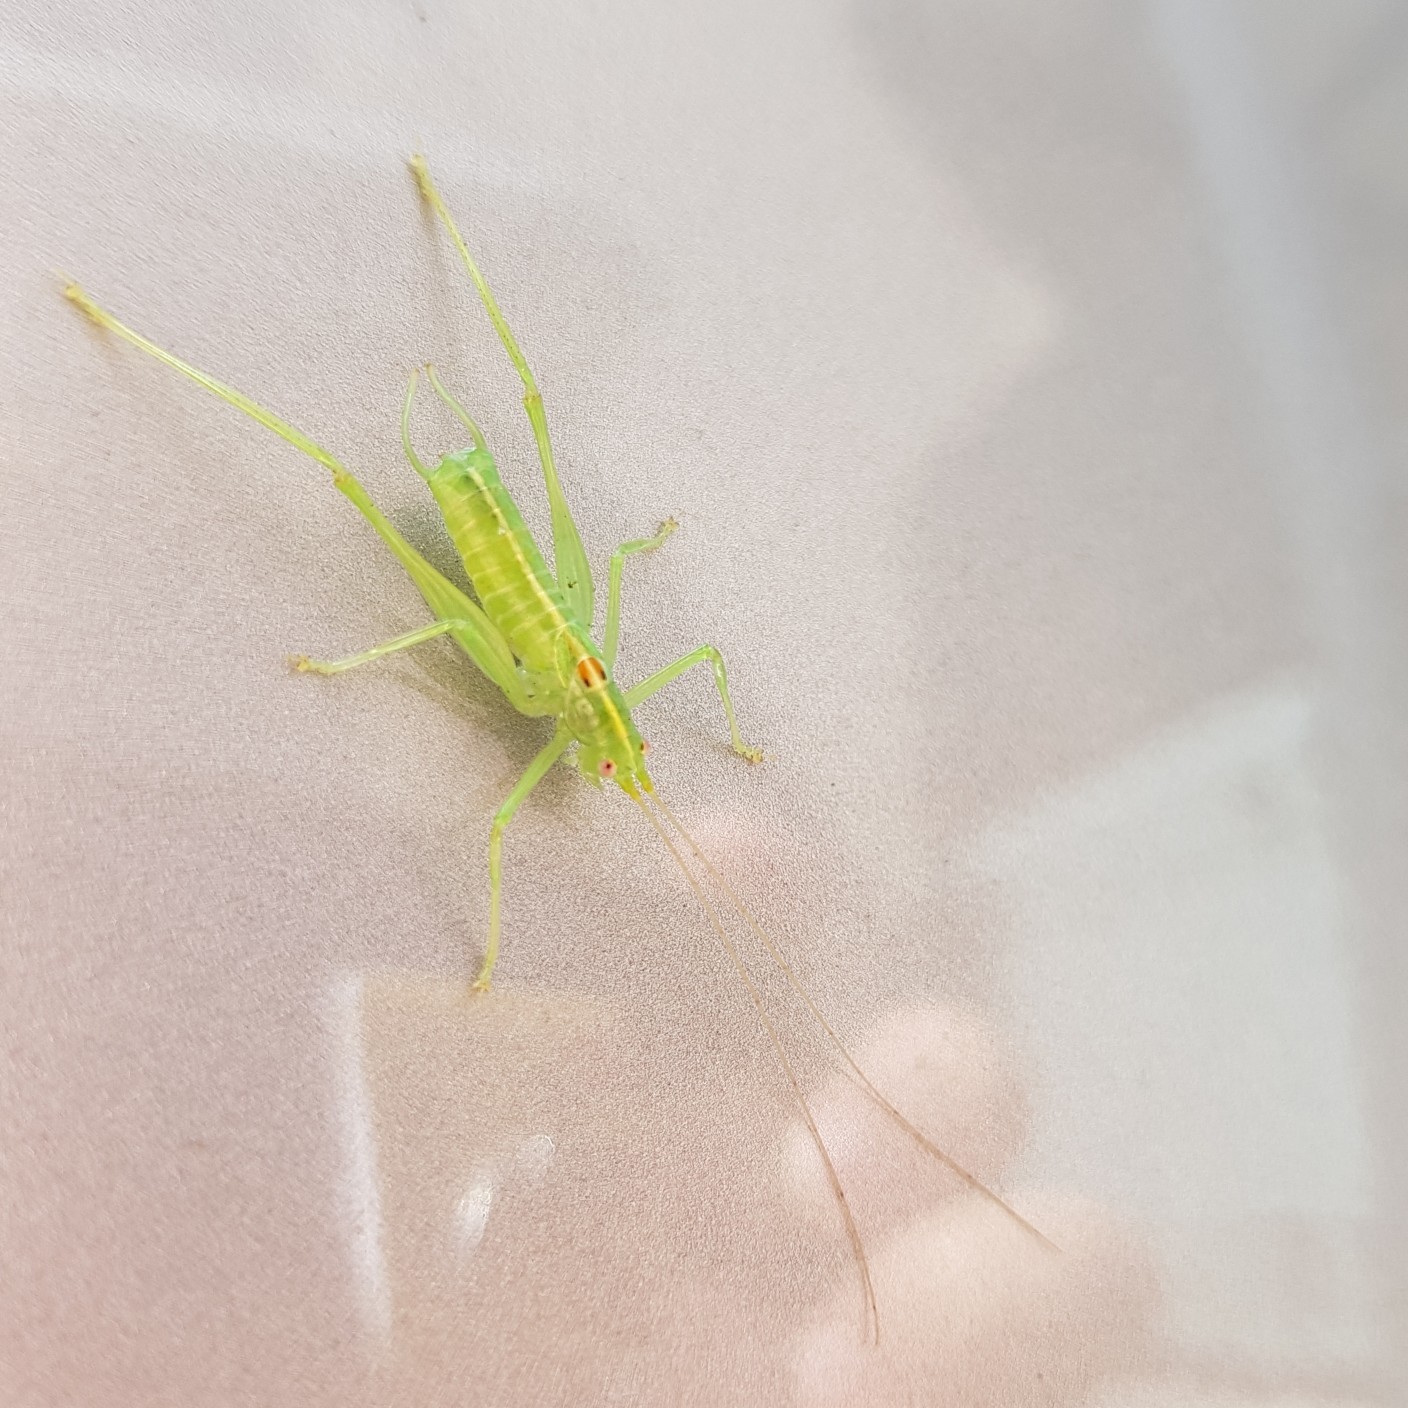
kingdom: Animalia
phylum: Arthropoda
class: Insecta
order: Orthoptera
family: Tettigoniidae
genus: Meconema
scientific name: Meconema meridionale
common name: Southern oak bush-cricket
